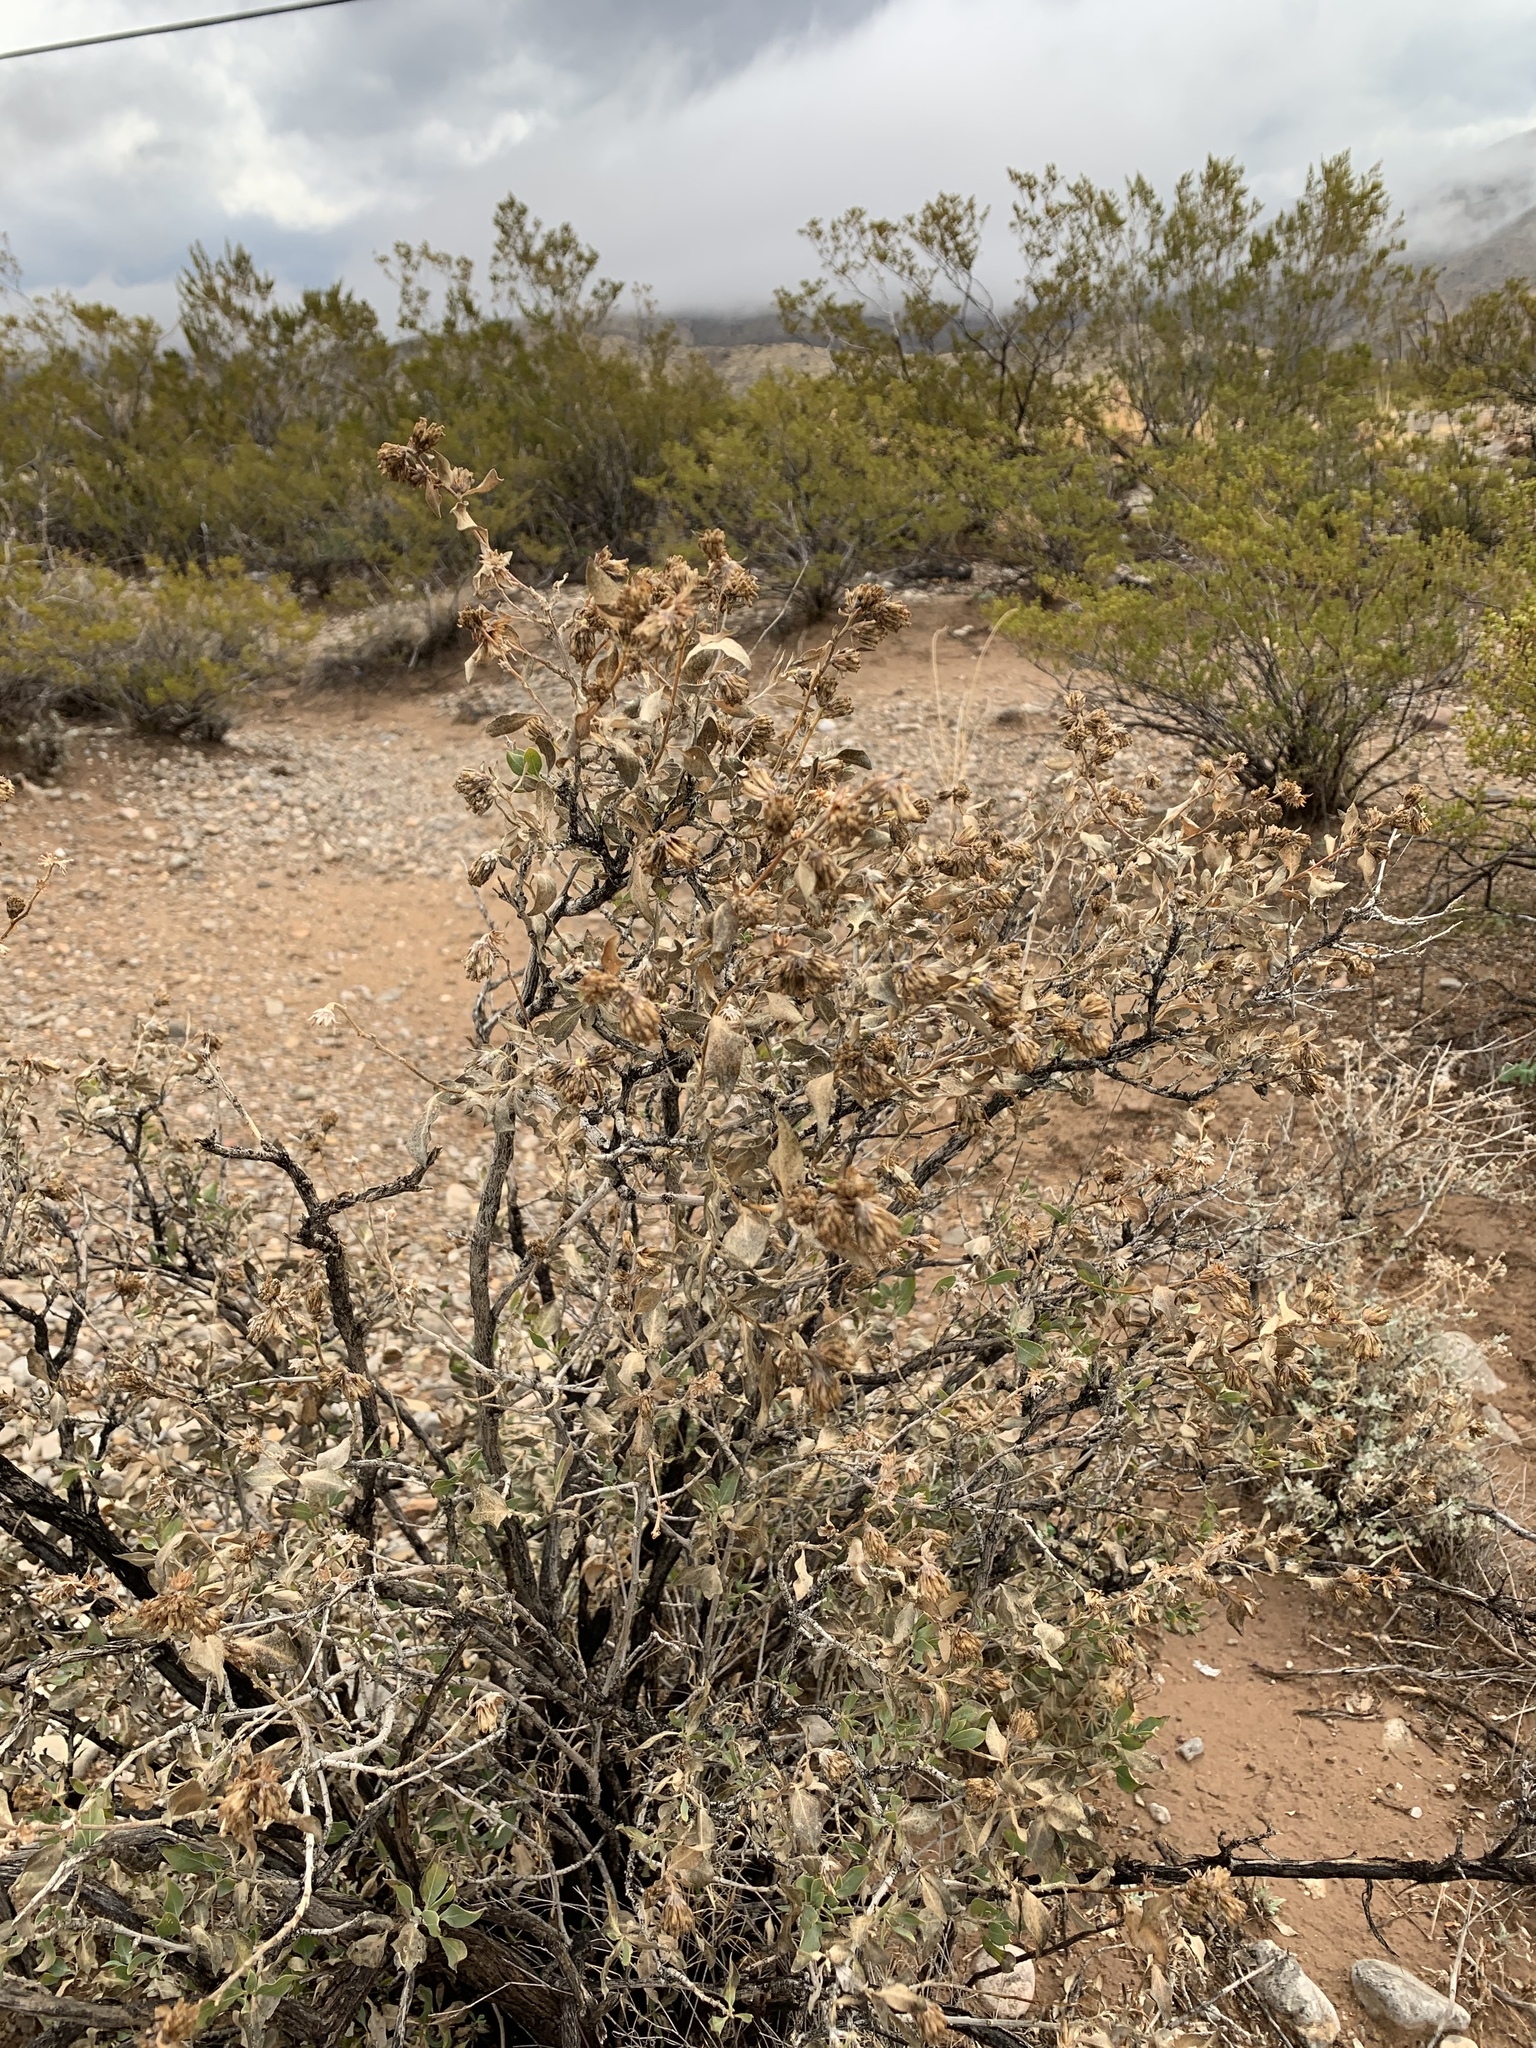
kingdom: Plantae
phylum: Tracheophyta
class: Magnoliopsida
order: Asterales
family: Asteraceae
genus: Flourensia
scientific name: Flourensia cernua
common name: Varnishbush
